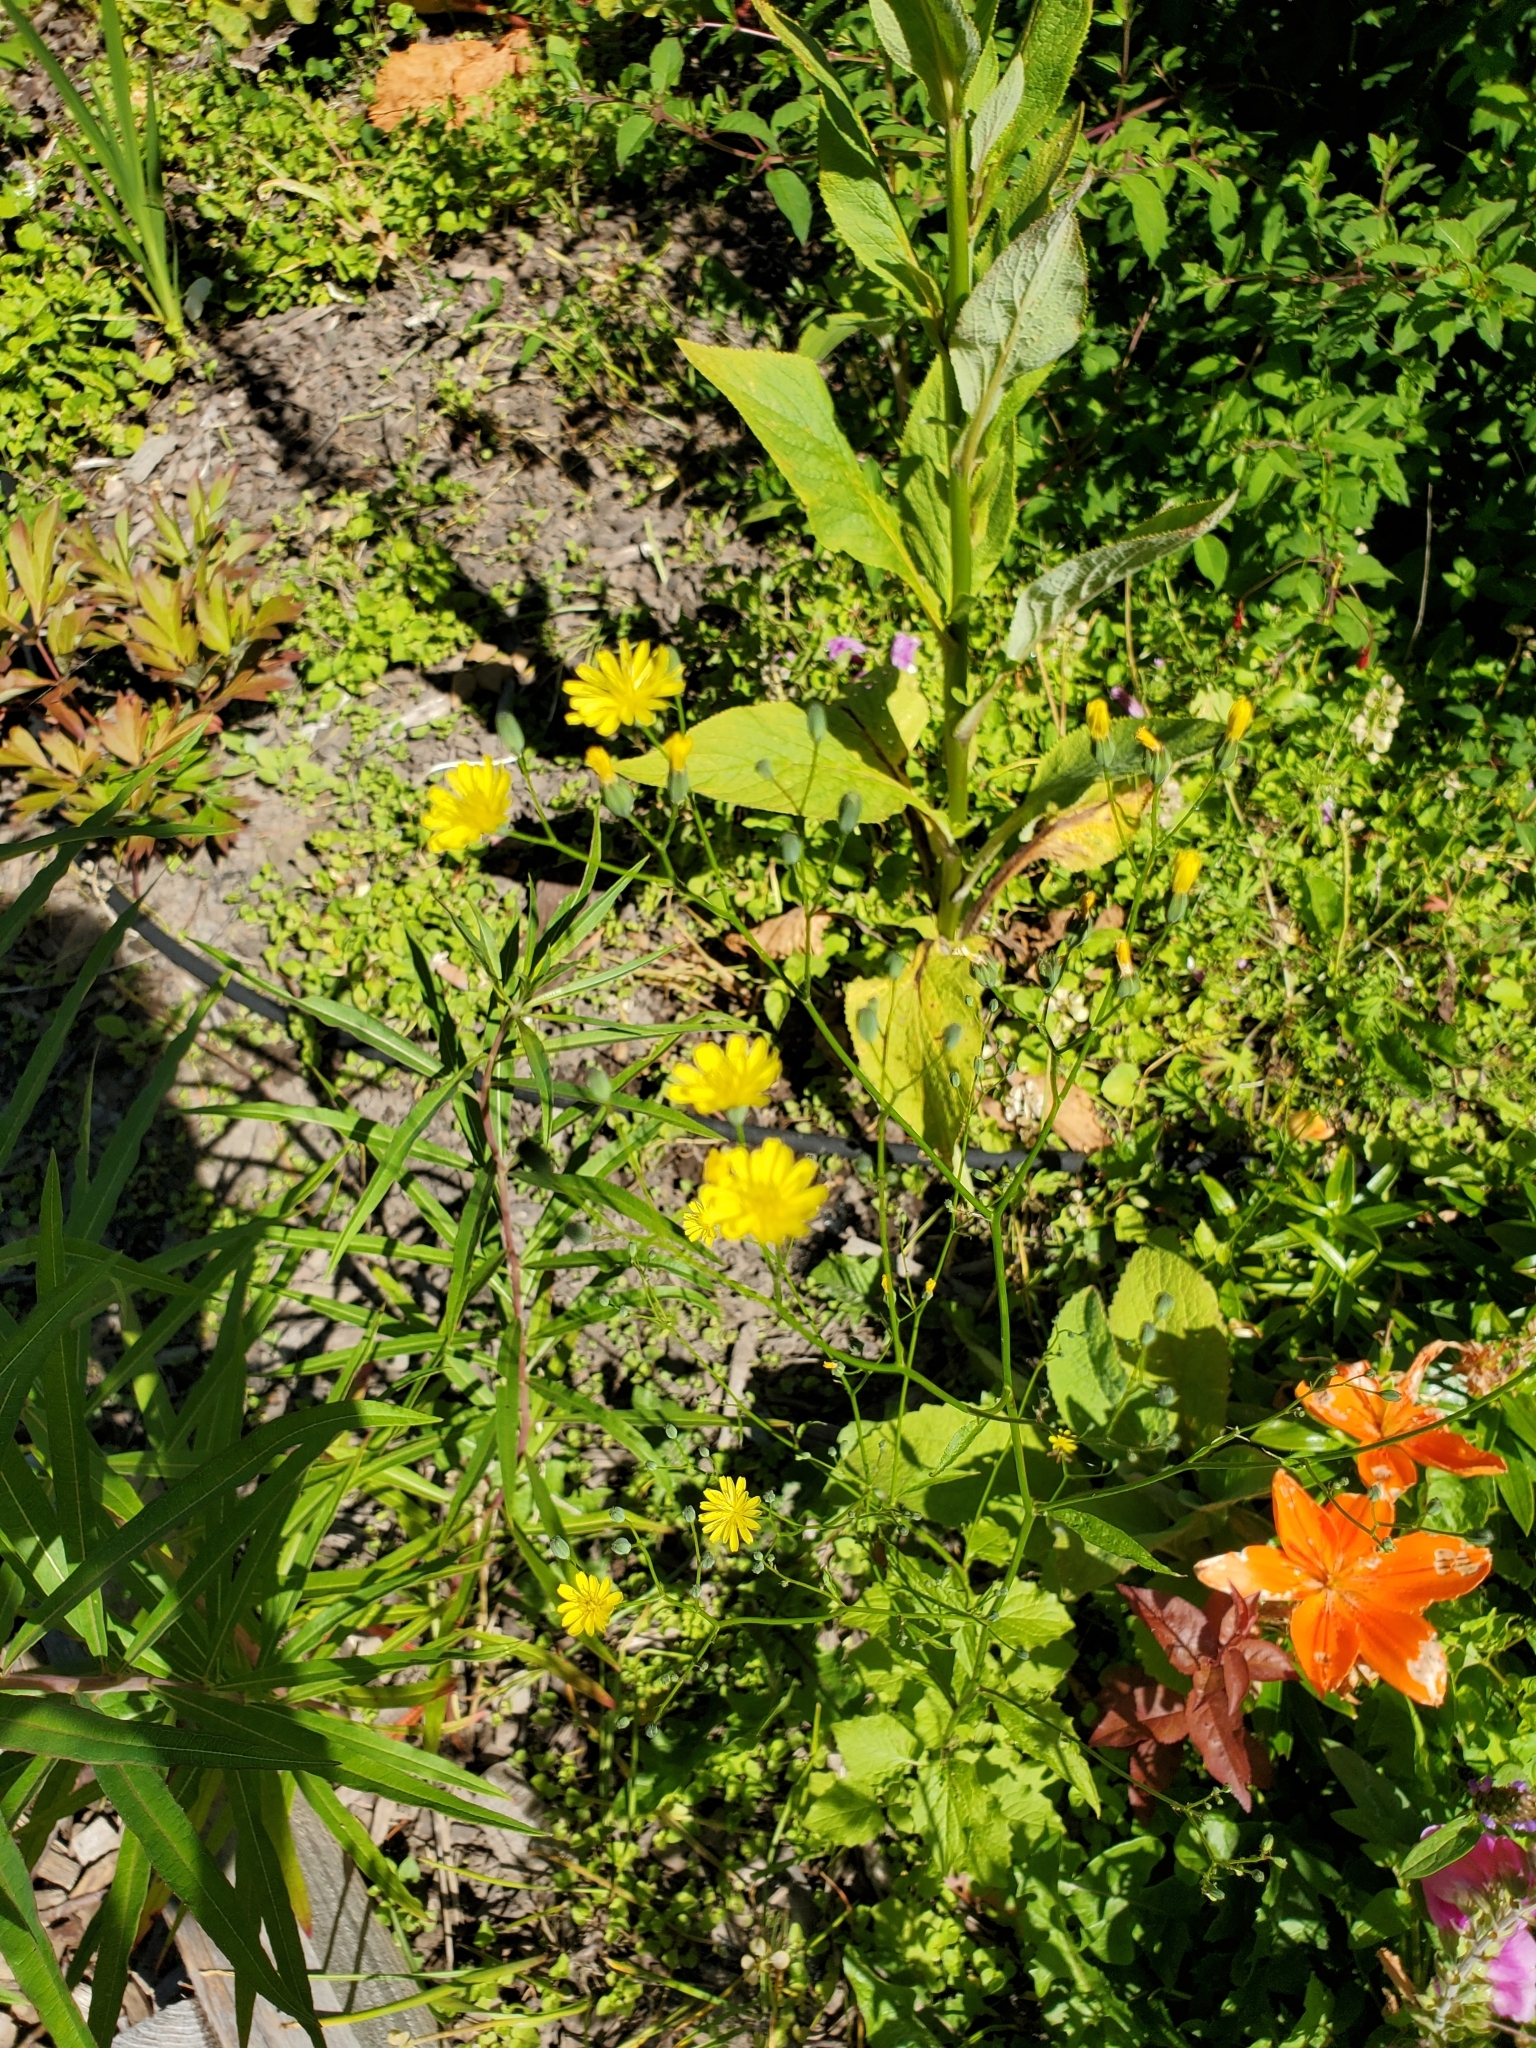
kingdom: Plantae
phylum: Tracheophyta
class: Magnoliopsida
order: Asterales
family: Asteraceae
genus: Lapsana
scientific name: Lapsana communis
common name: Nipplewort
